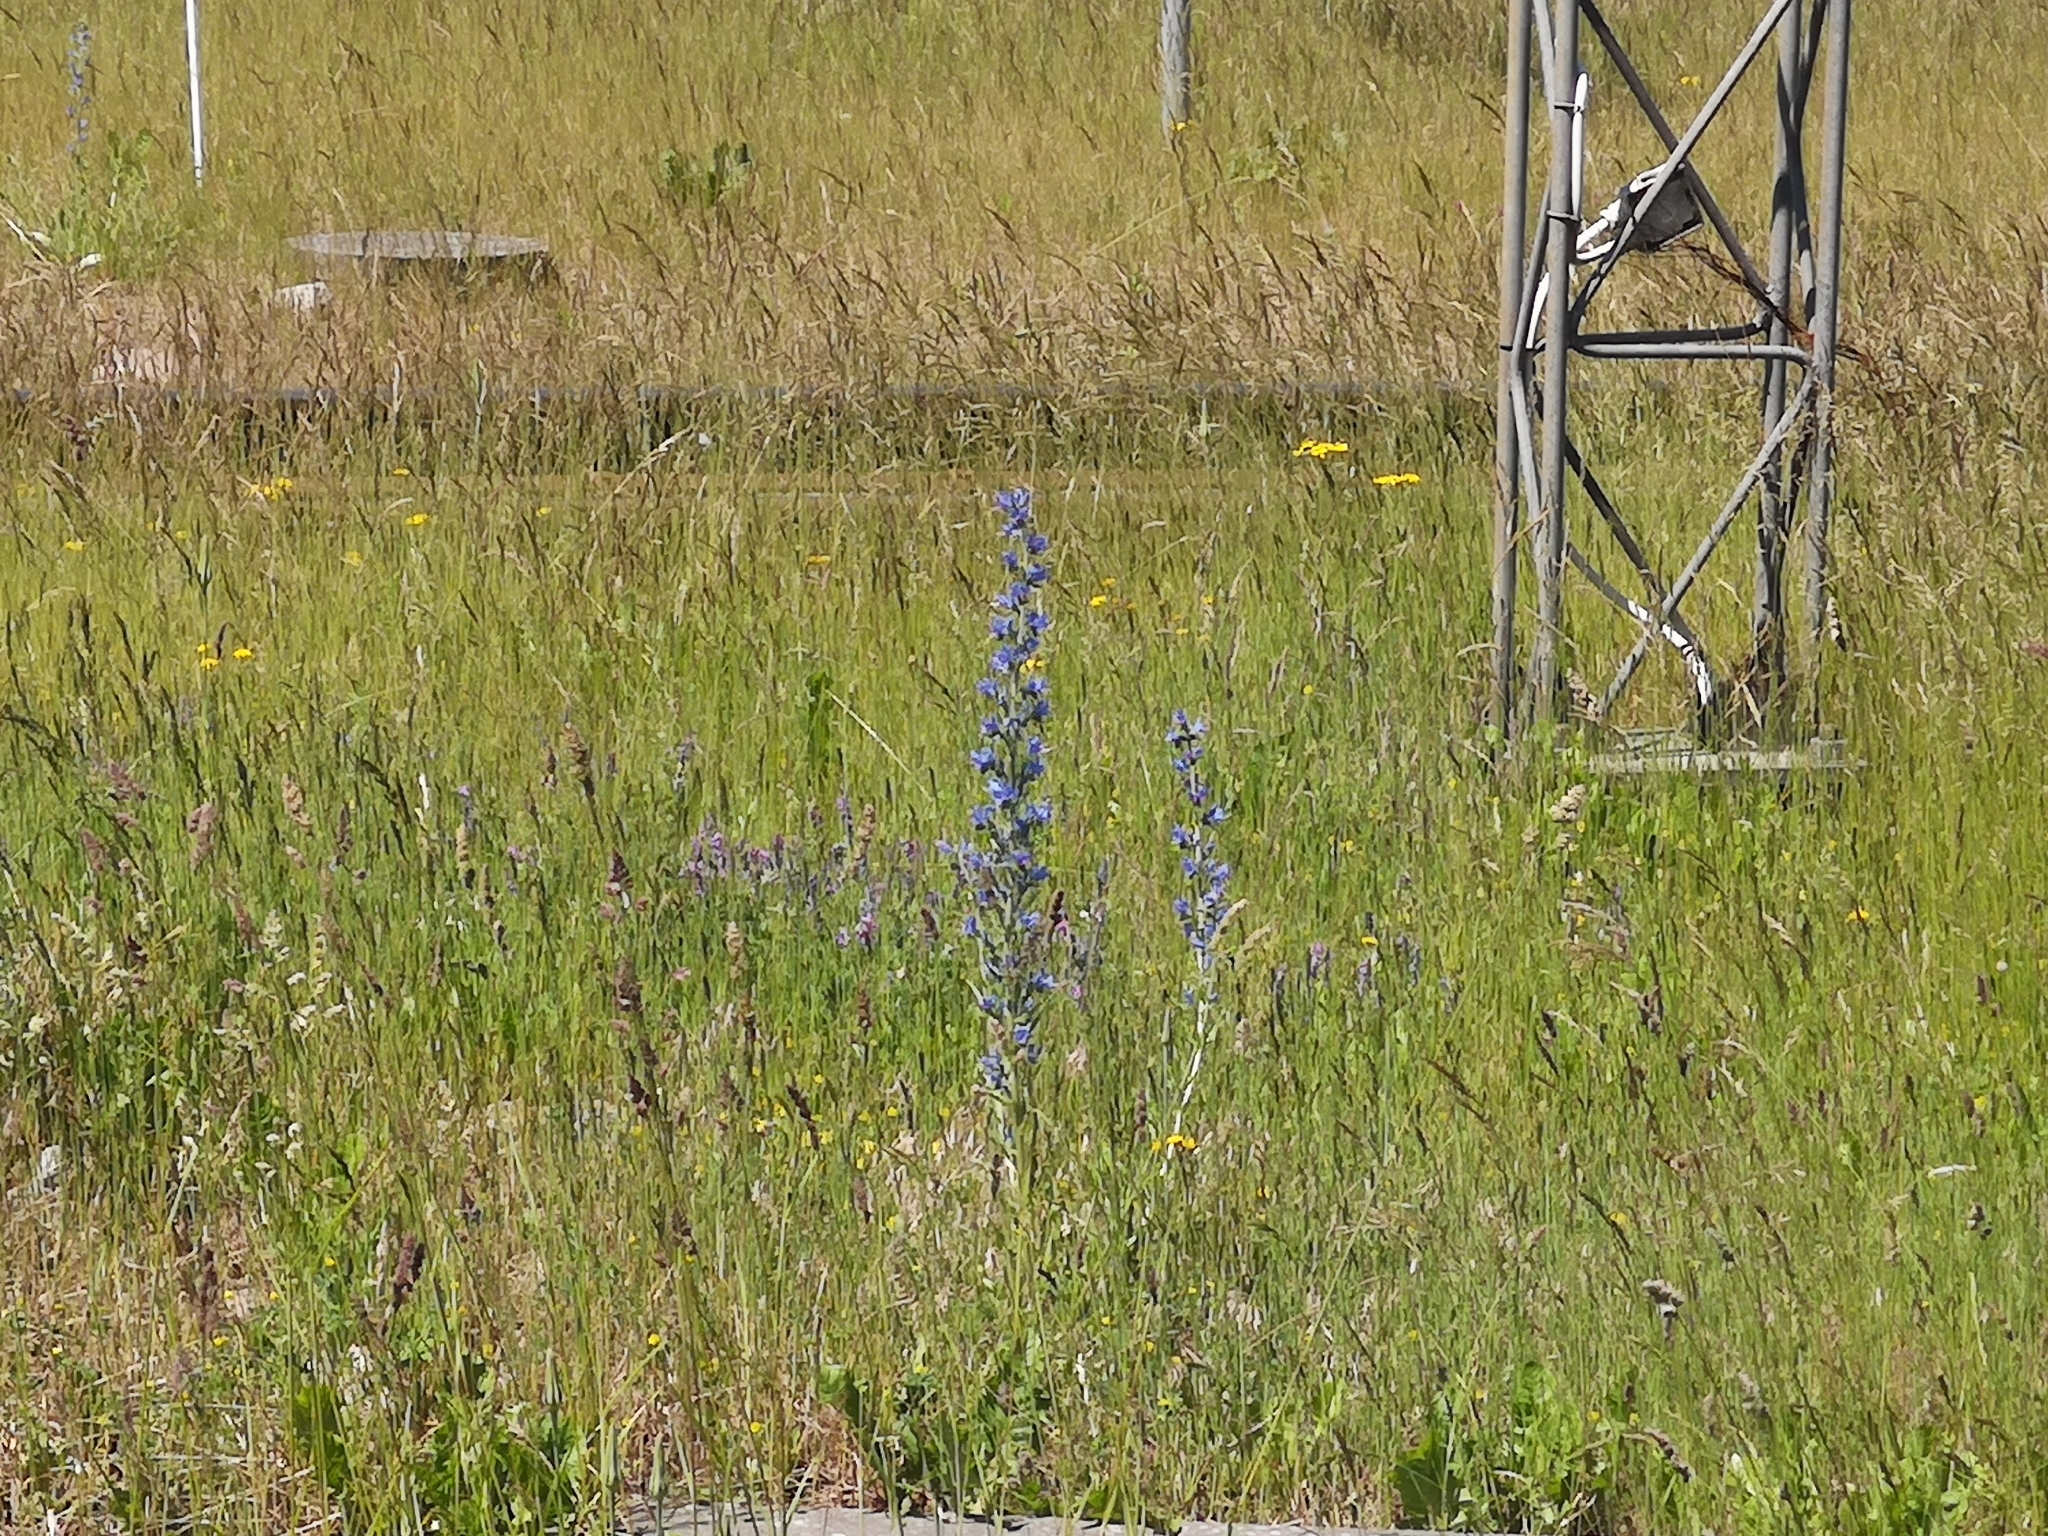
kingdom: Plantae
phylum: Tracheophyta
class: Magnoliopsida
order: Boraginales
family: Boraginaceae
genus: Echium
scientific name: Echium vulgare
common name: Common viper's bugloss
